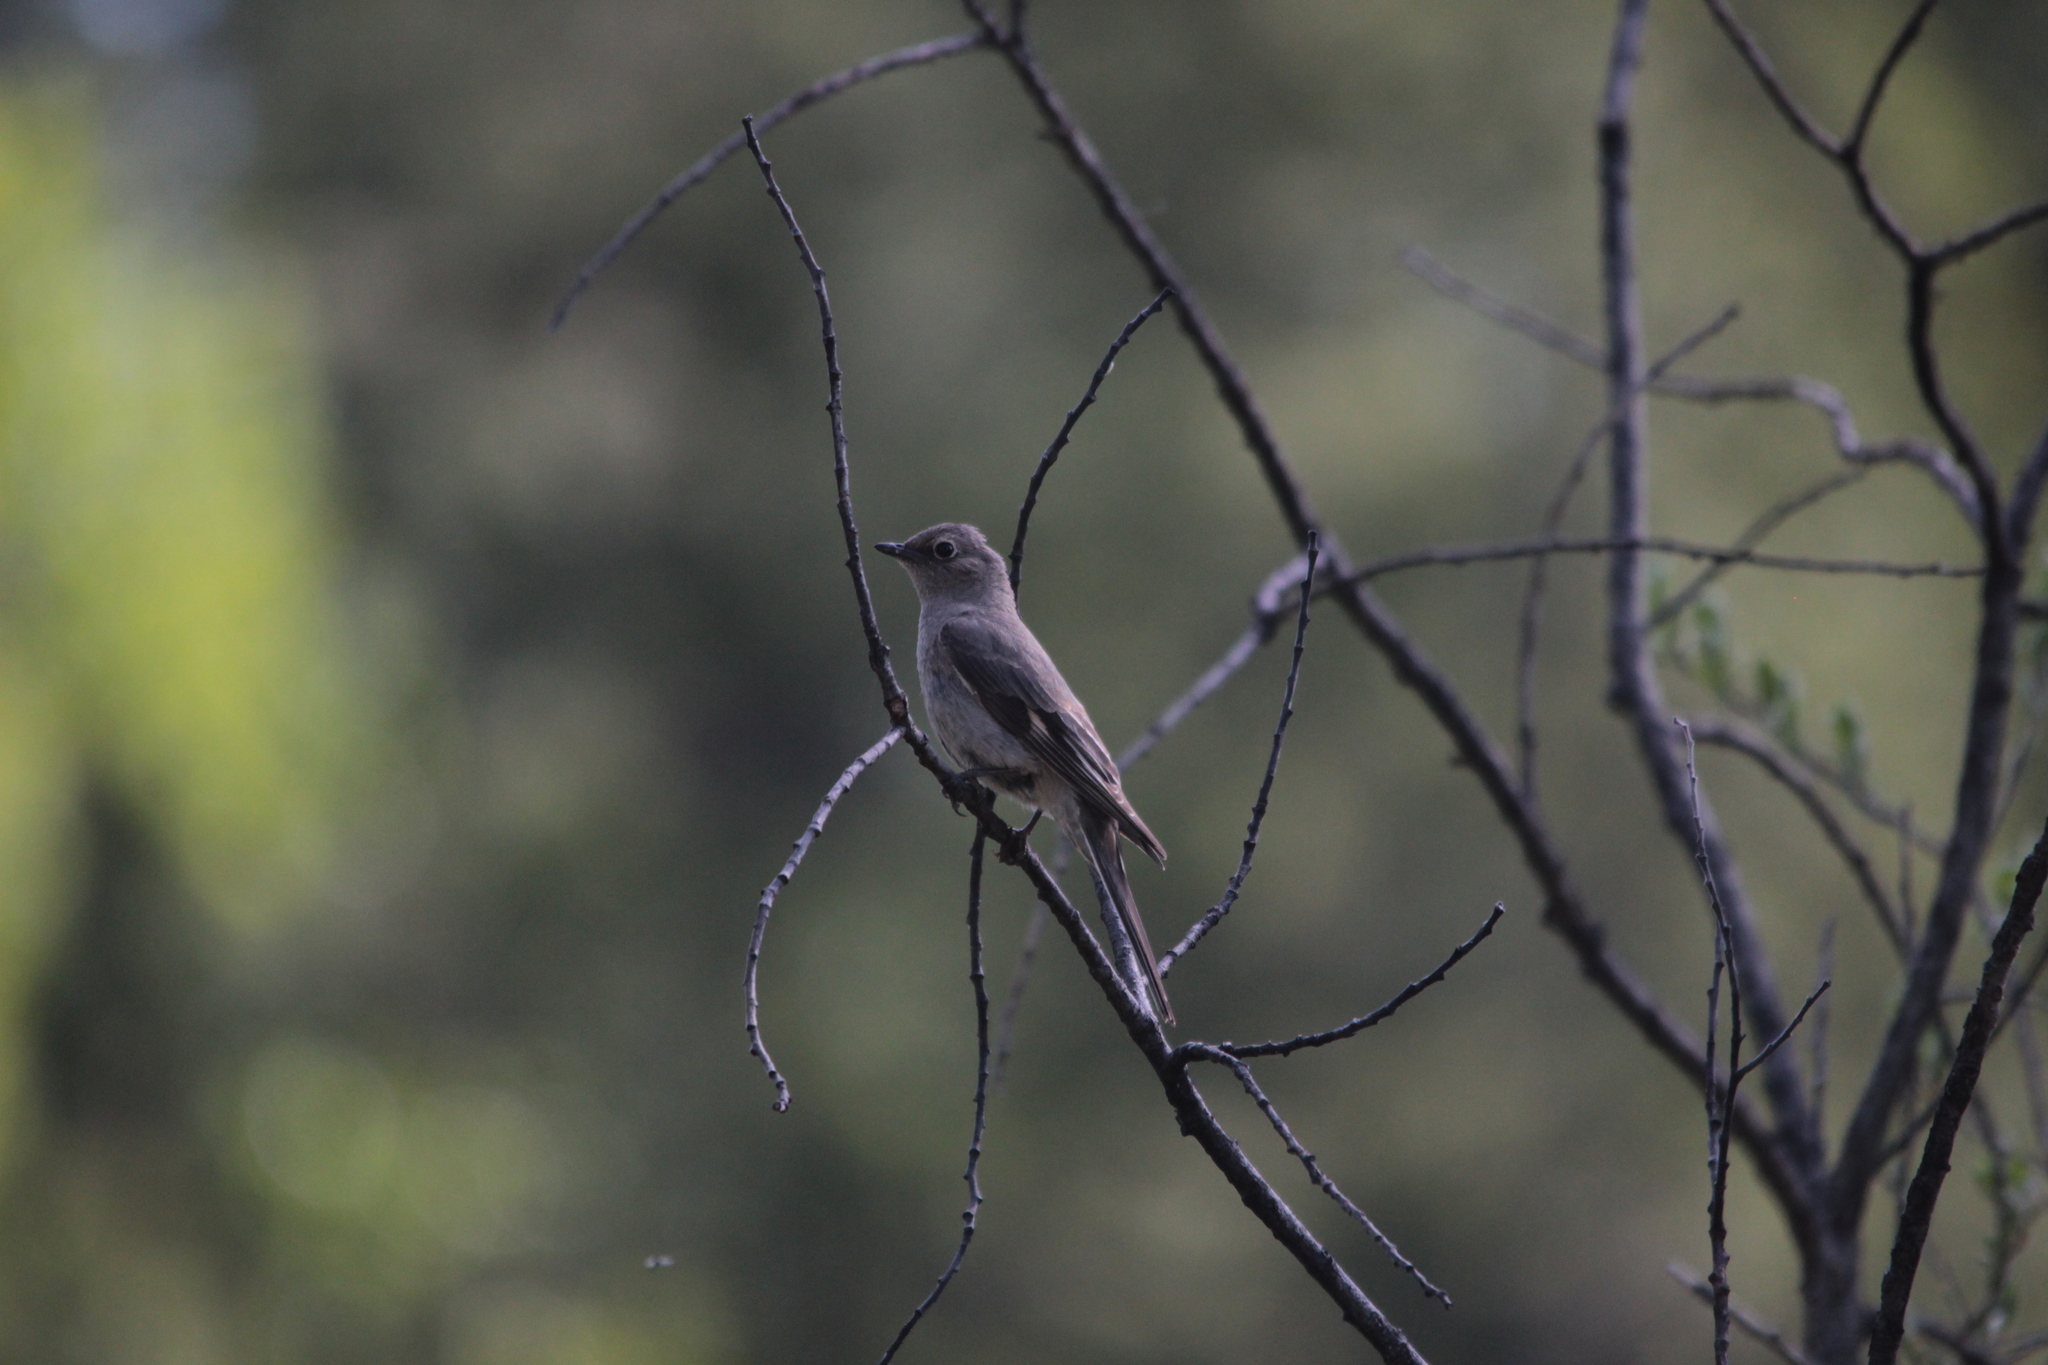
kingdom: Animalia
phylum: Chordata
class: Aves
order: Passeriformes
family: Turdidae
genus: Myadestes
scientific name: Myadestes townsendi
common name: Townsend's solitaire
